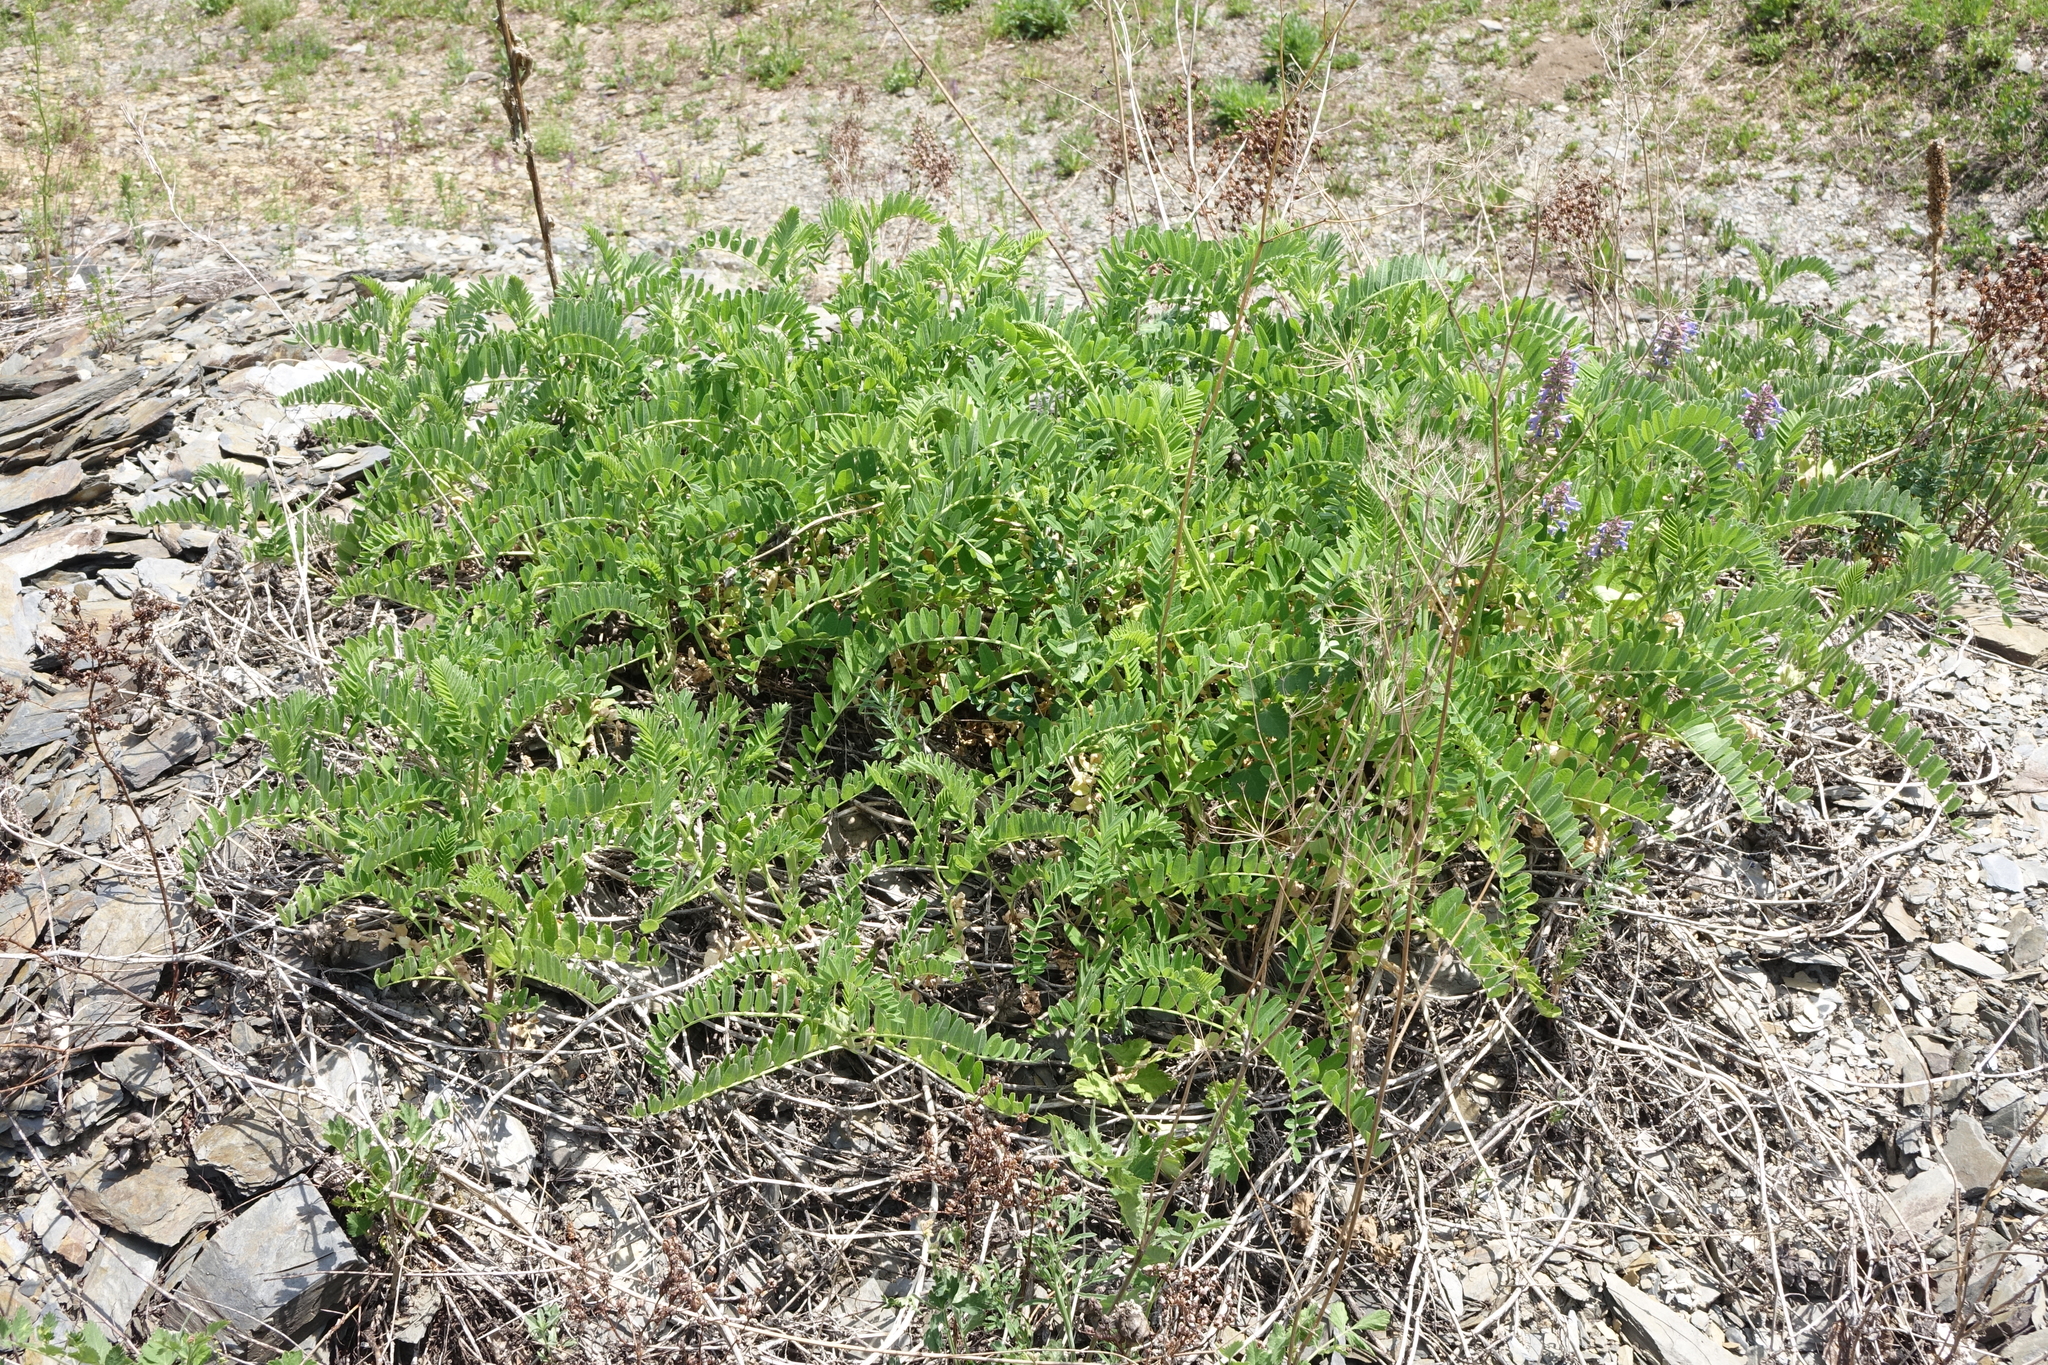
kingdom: Plantae
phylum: Tracheophyta
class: Magnoliopsida
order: Fabales
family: Fabaceae
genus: Astragalus
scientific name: Astragalus cicer
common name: Chick-pea milk-vetch
